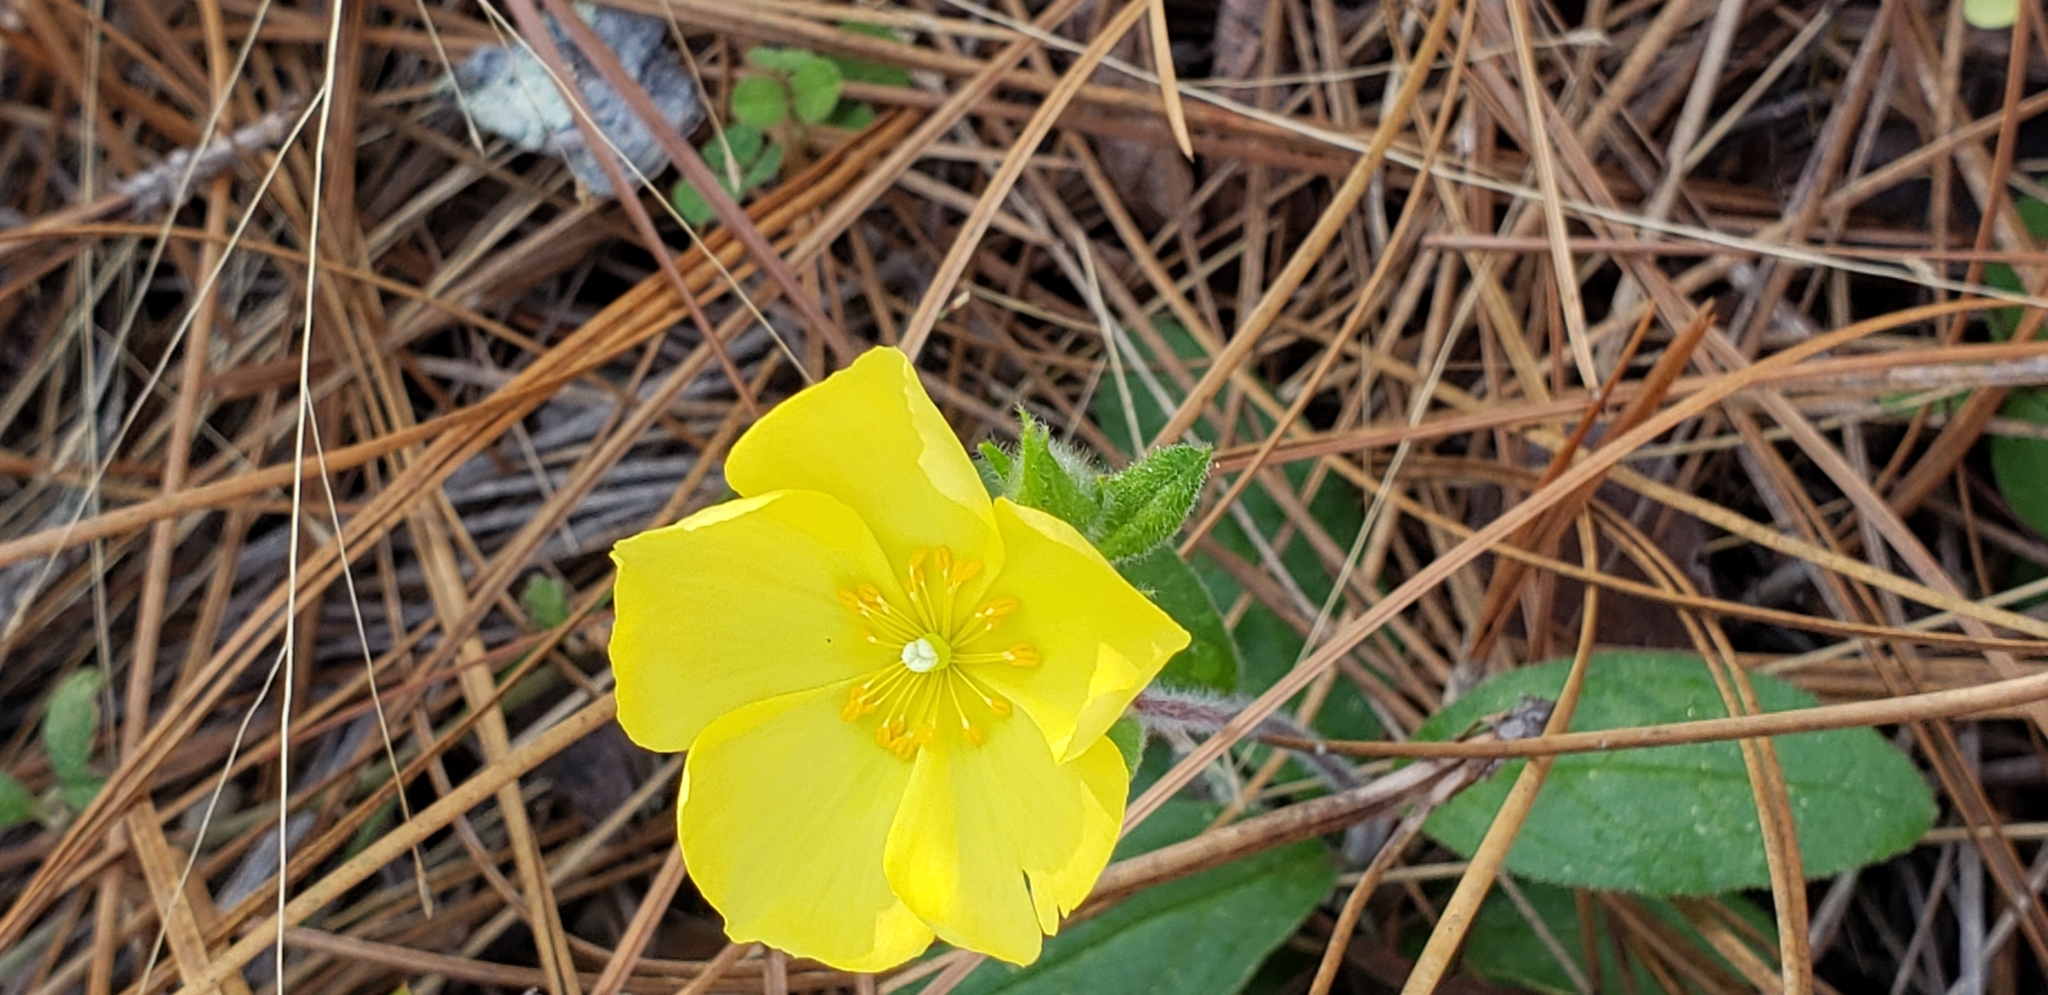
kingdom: Plantae
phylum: Tracheophyta
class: Magnoliopsida
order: Malvales
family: Cistaceae
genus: Crocanthemum
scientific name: Crocanthemum carolinianum
